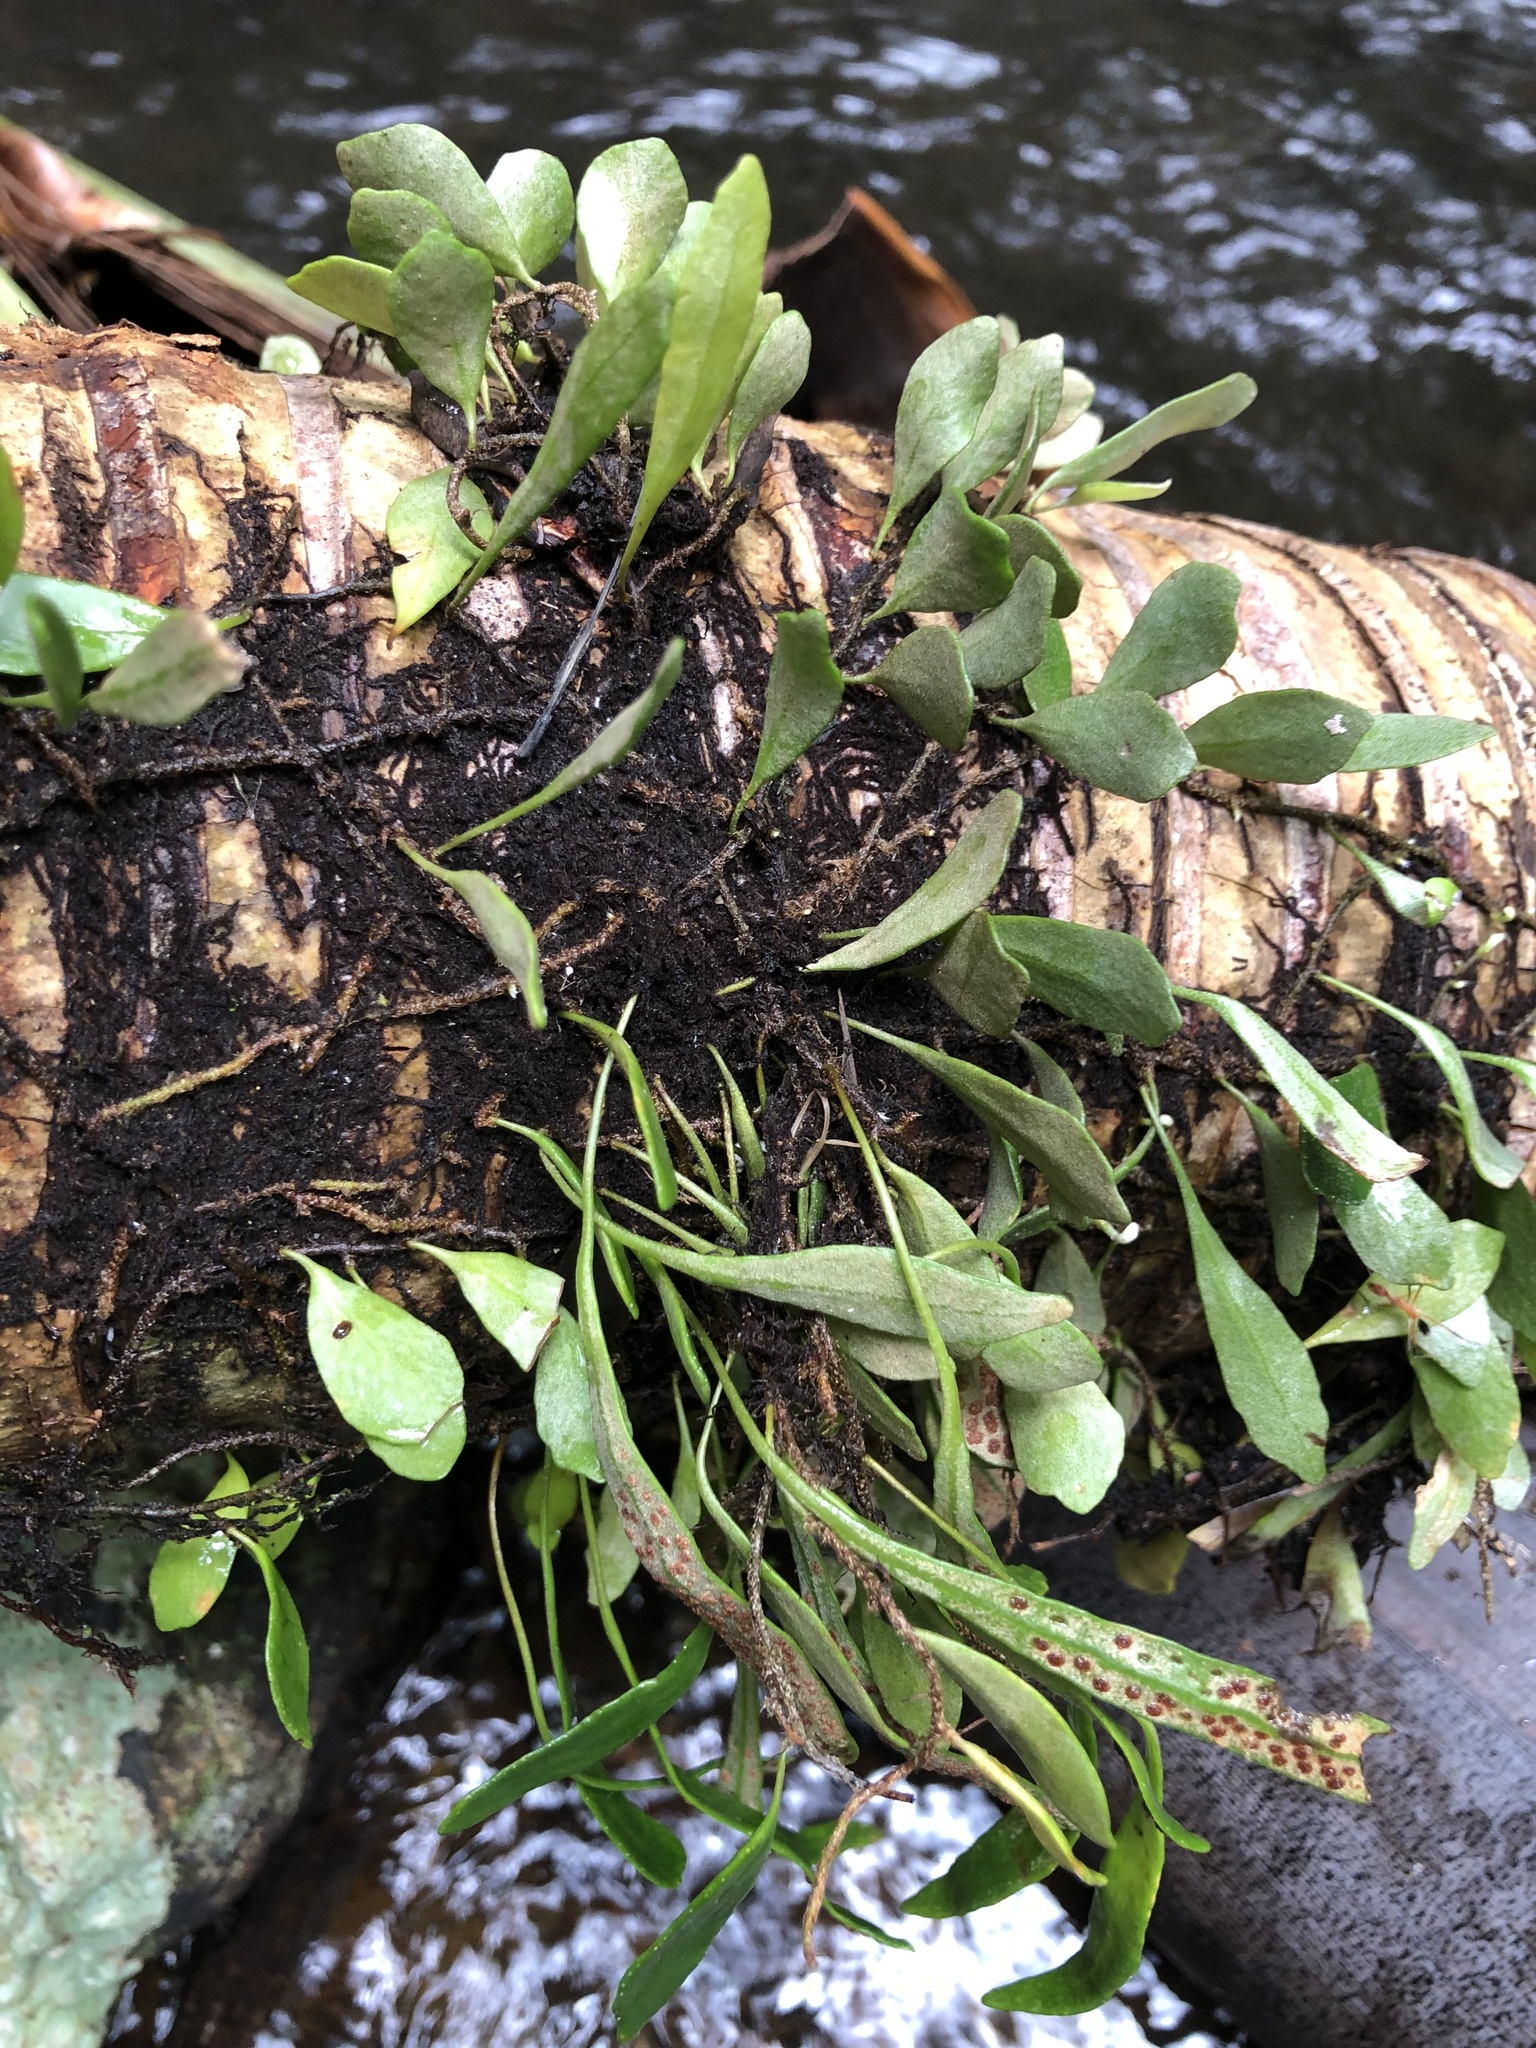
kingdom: Plantae
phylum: Tracheophyta
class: Polypodiopsida
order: Polypodiales
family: Polypodiaceae
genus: Pyrrosia
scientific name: Pyrrosia rupestris
